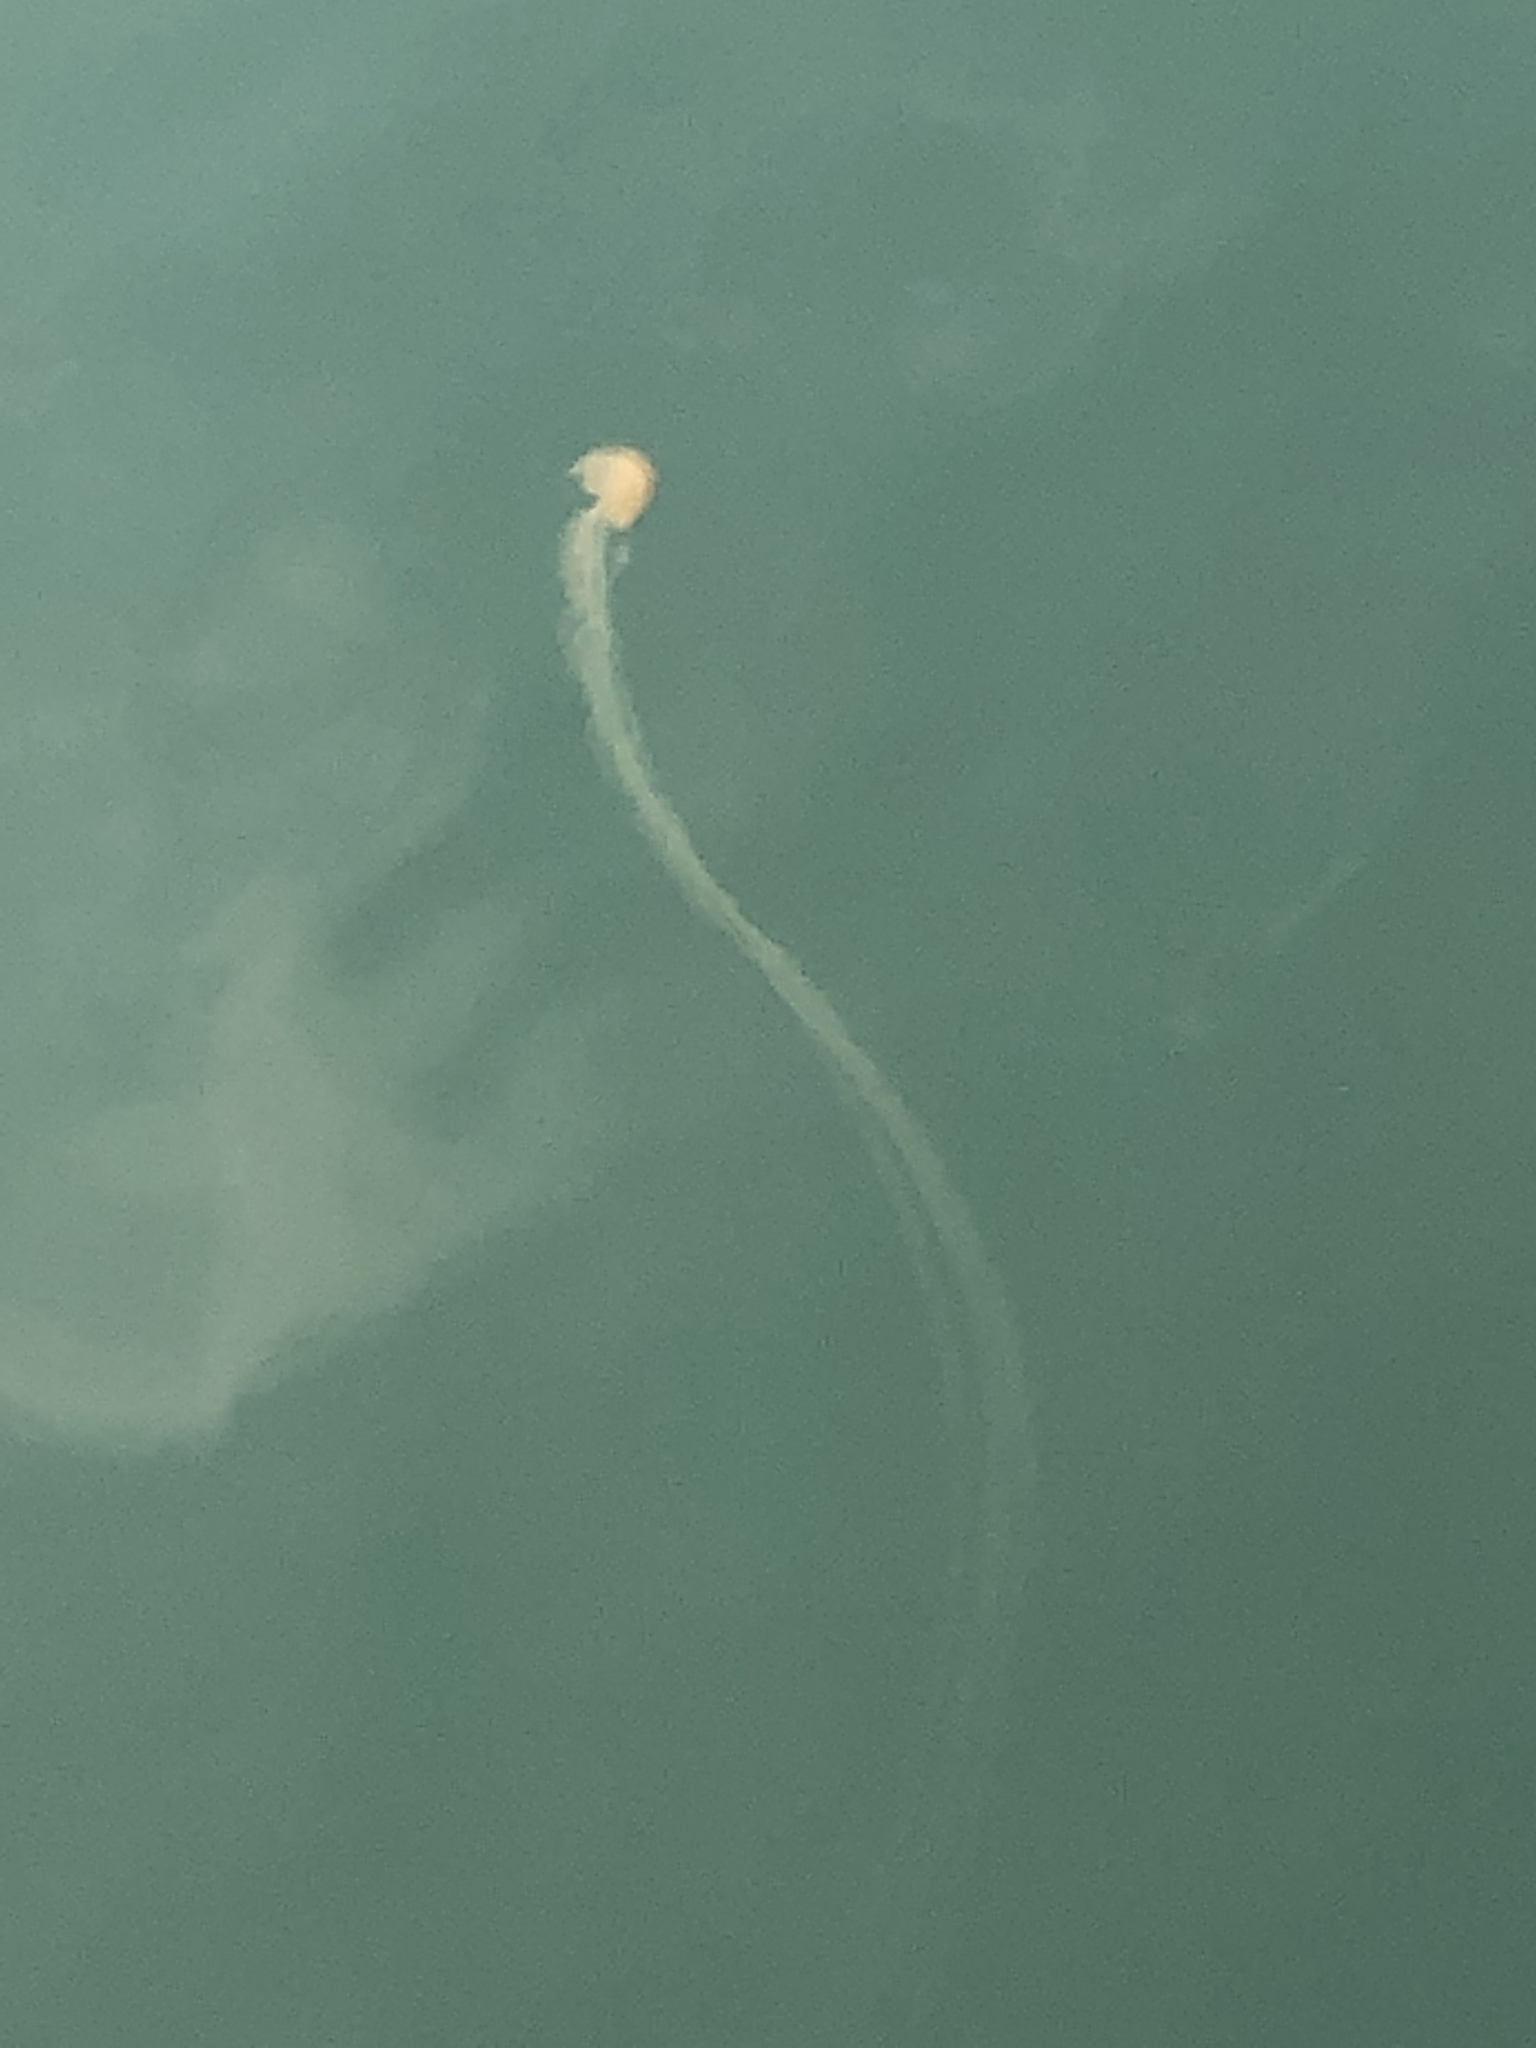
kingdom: Animalia
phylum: Cnidaria
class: Scyphozoa
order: Semaeostomeae
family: Pelagiidae
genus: Chrysaora
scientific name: Chrysaora chinensis
